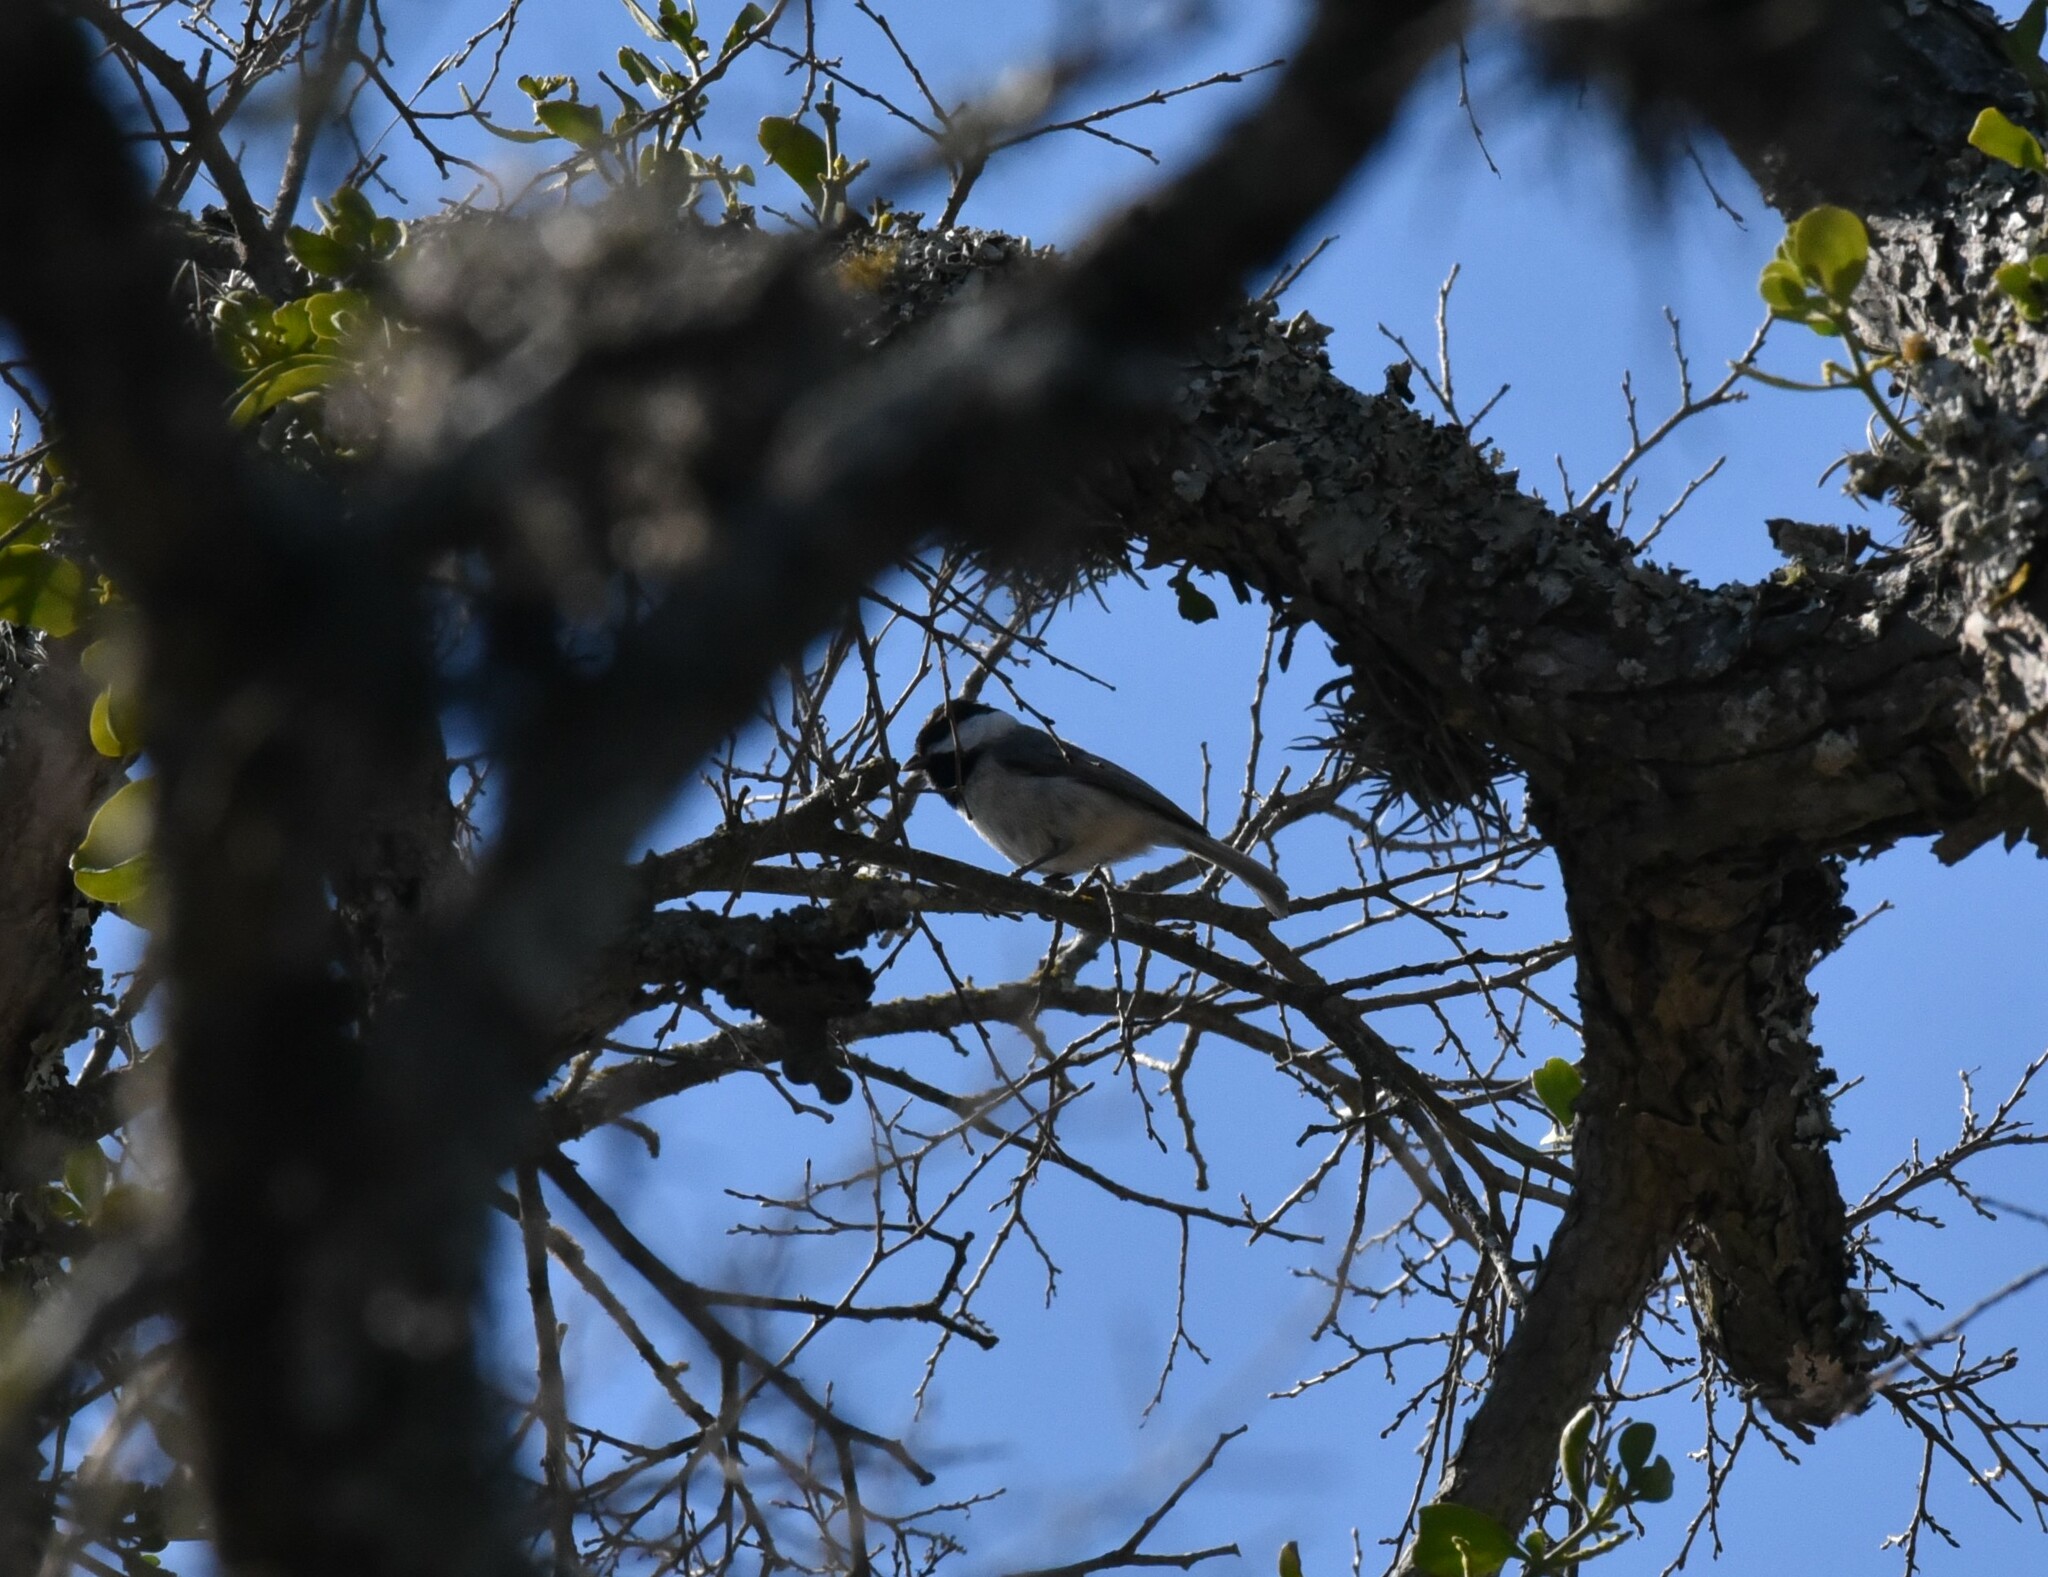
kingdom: Animalia
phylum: Chordata
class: Aves
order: Passeriformes
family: Paridae
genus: Poecile
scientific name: Poecile carolinensis
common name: Carolina chickadee
